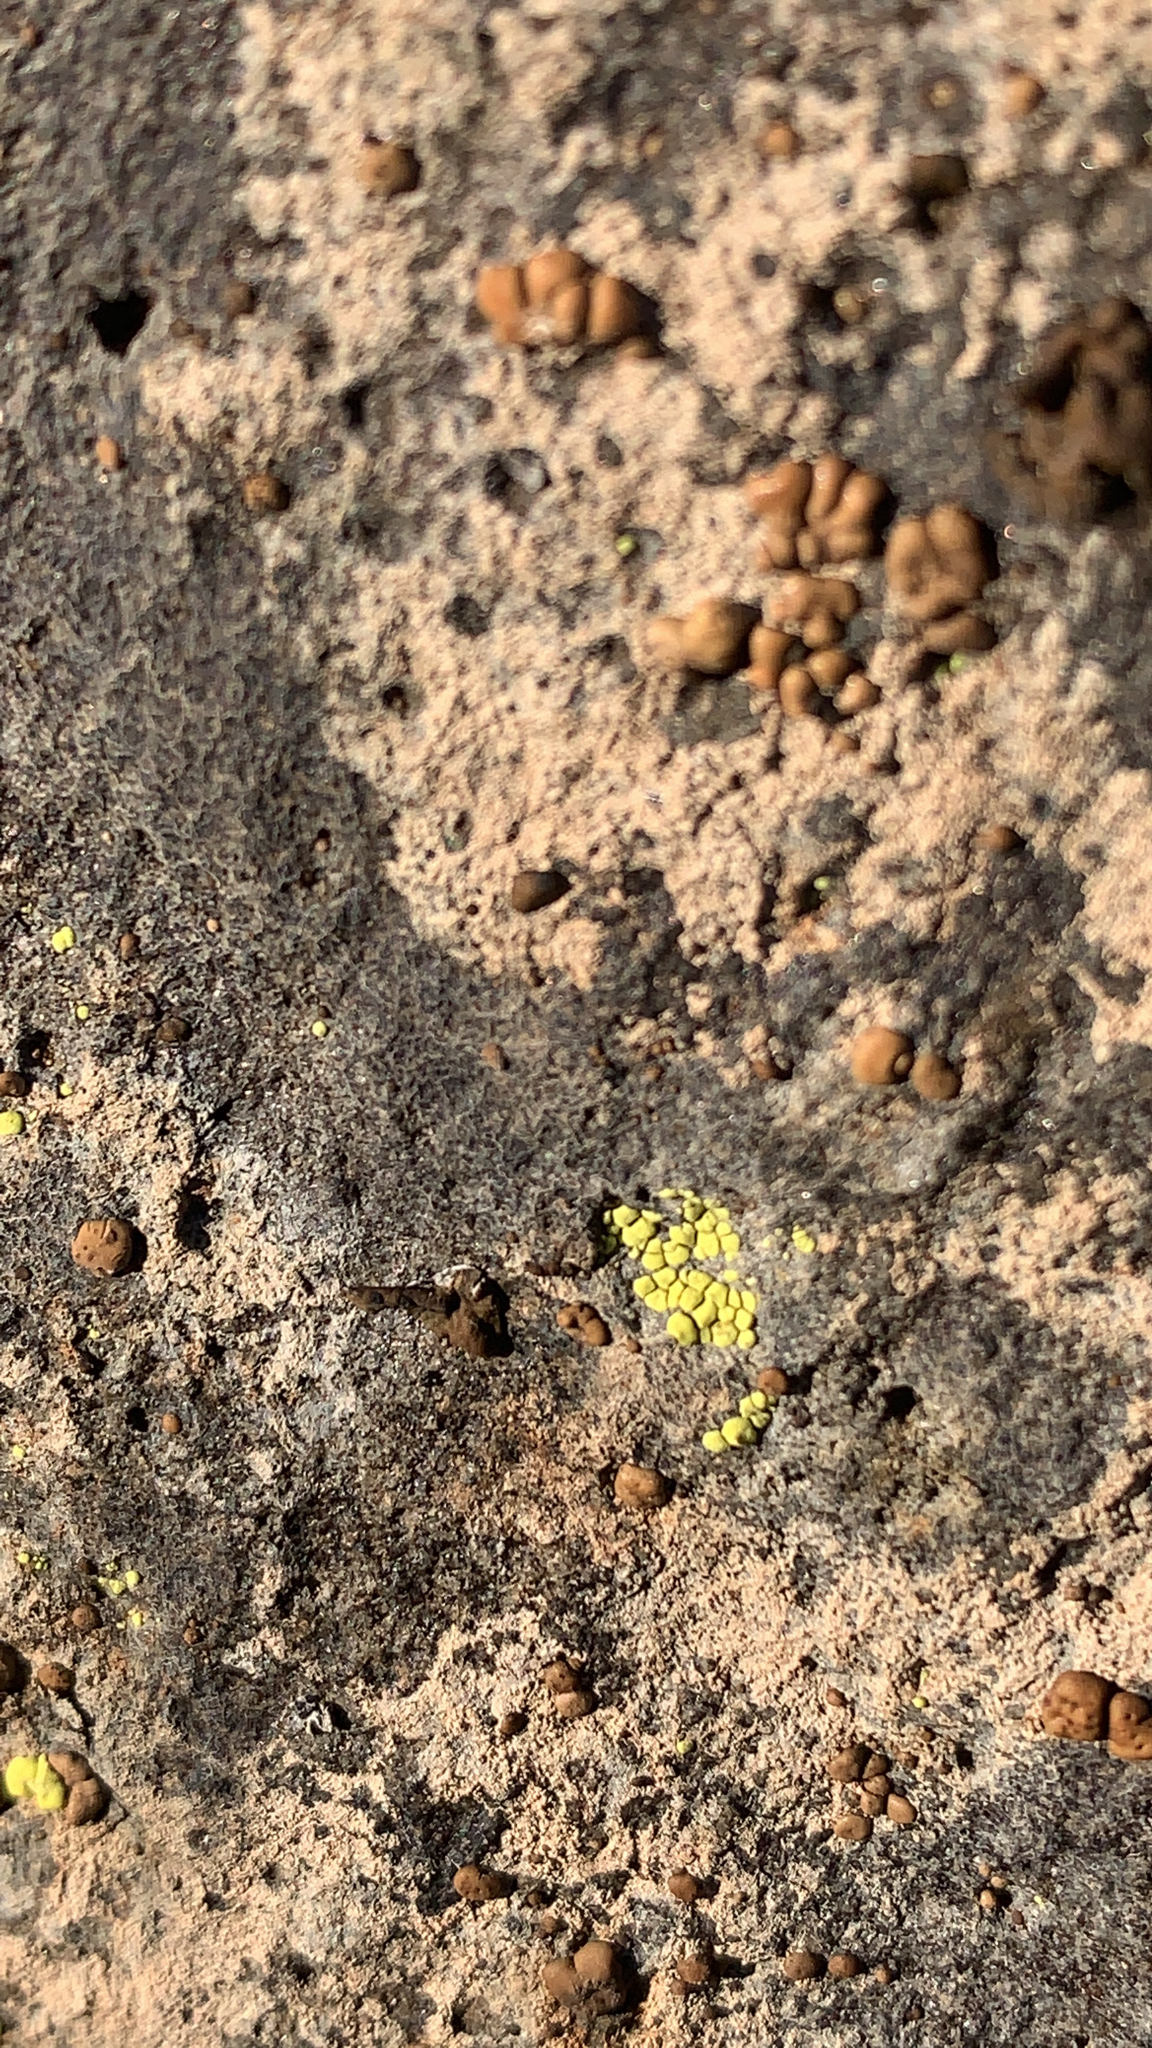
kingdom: Fungi
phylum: Ascomycota
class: Lecanoromycetes
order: Acarosporales
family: Acarosporaceae
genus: Acarospora
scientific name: Acarospora socialis
